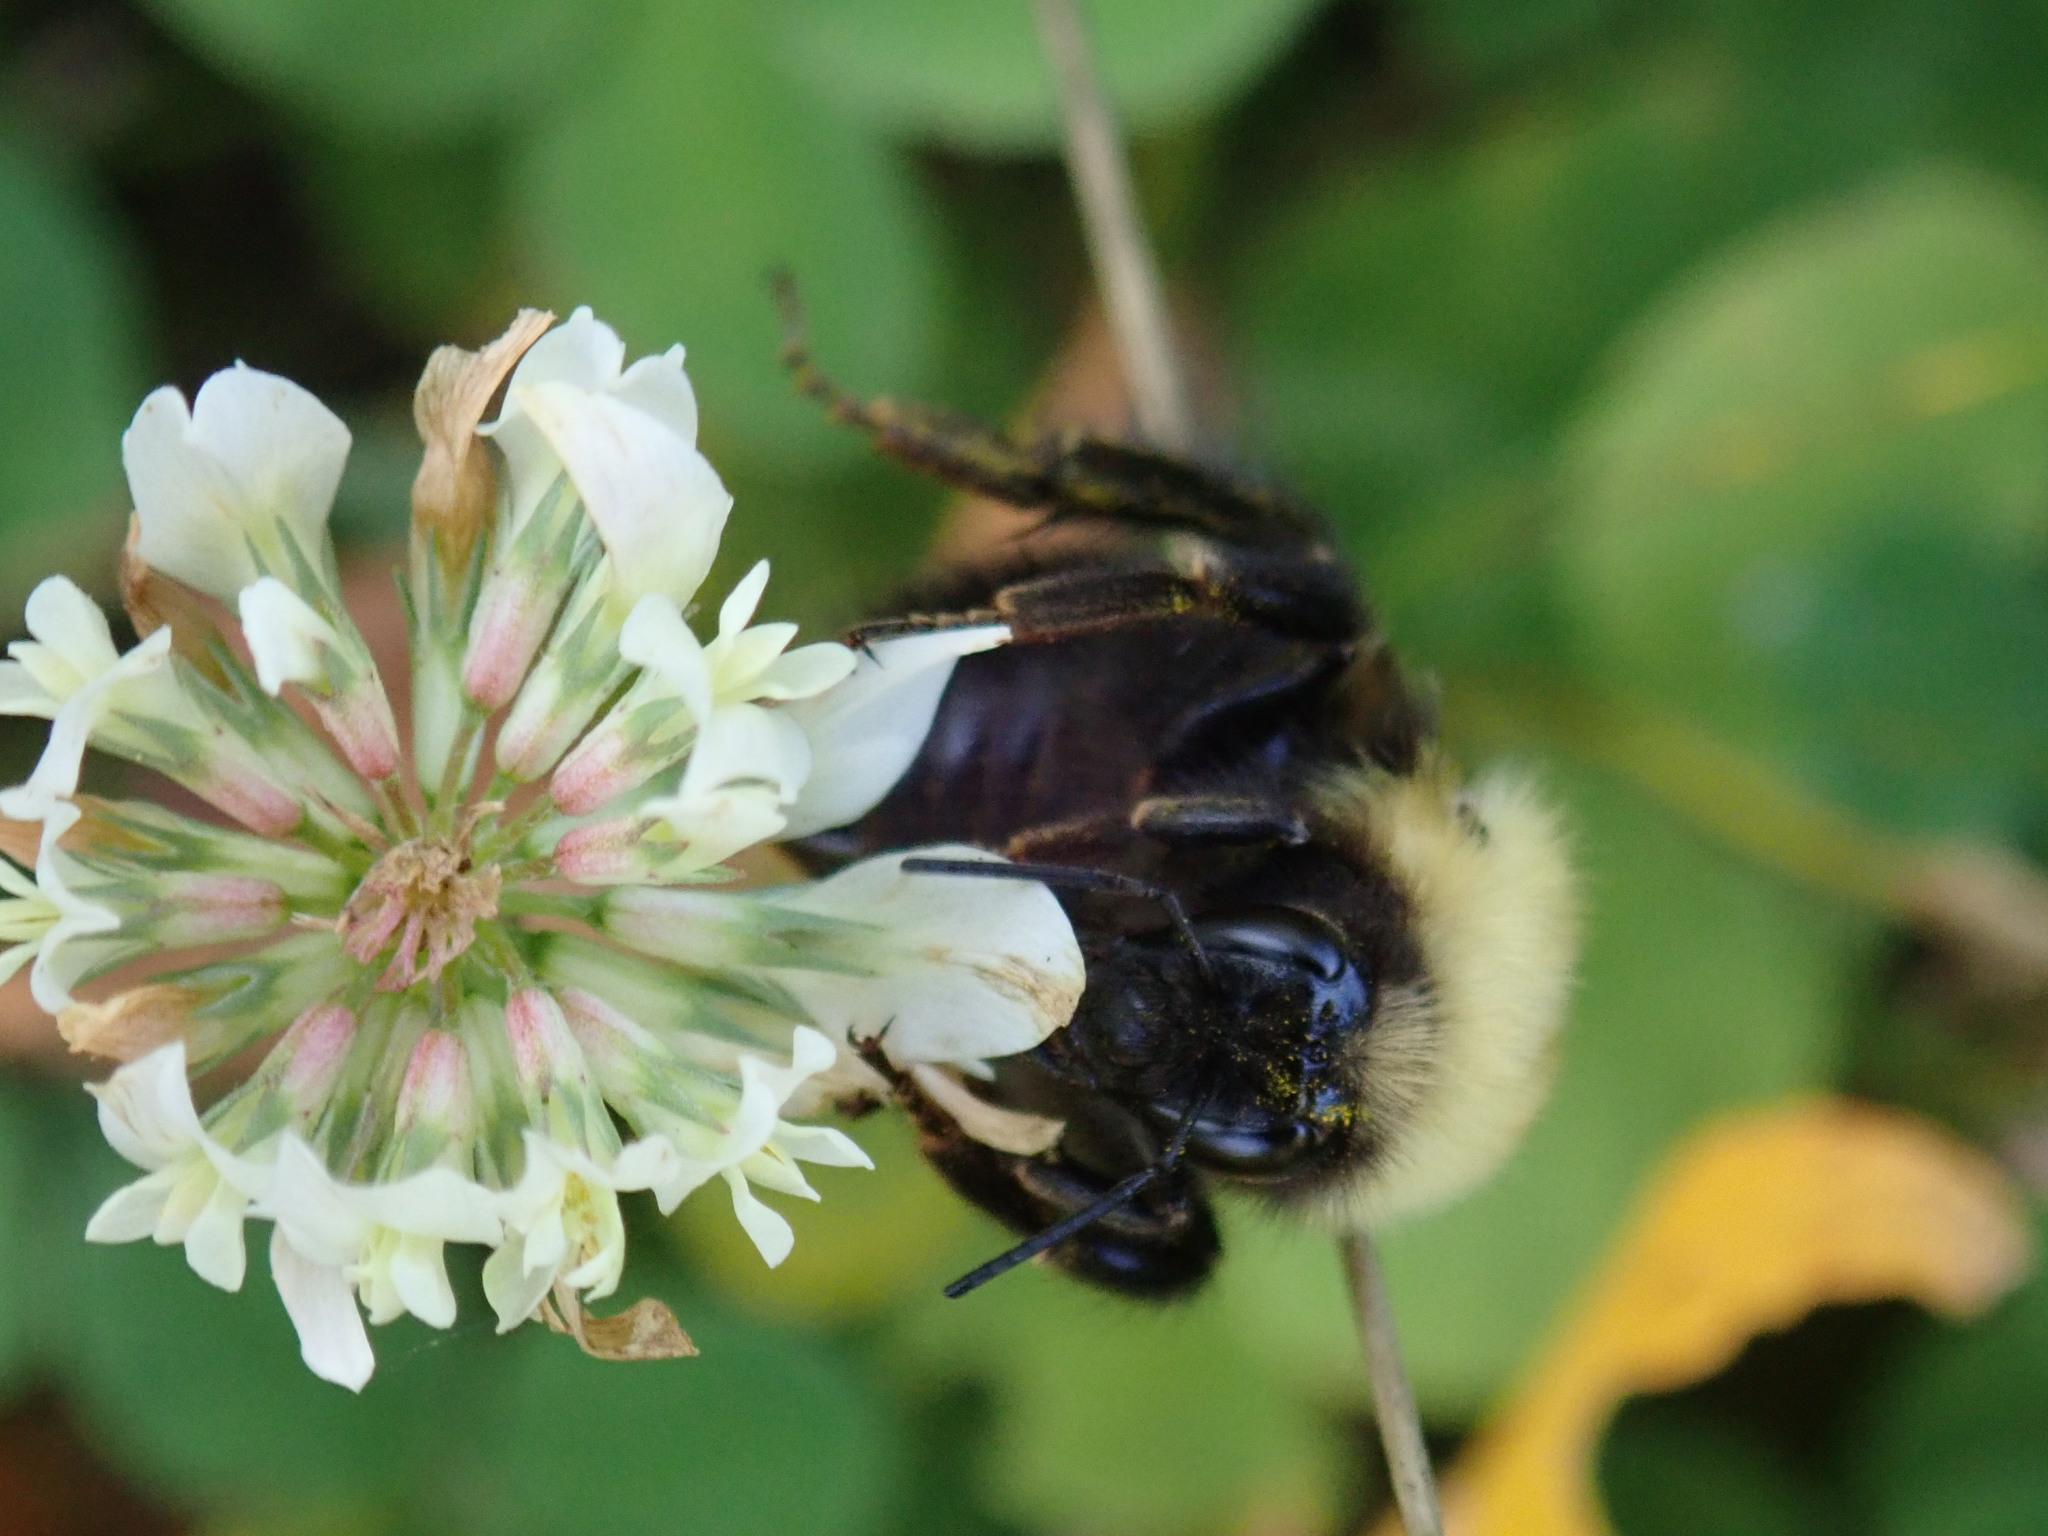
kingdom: Animalia
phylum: Arthropoda
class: Insecta
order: Hymenoptera
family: Apidae
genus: Bombus
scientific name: Bombus perplexus
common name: Confusing bumble bee
